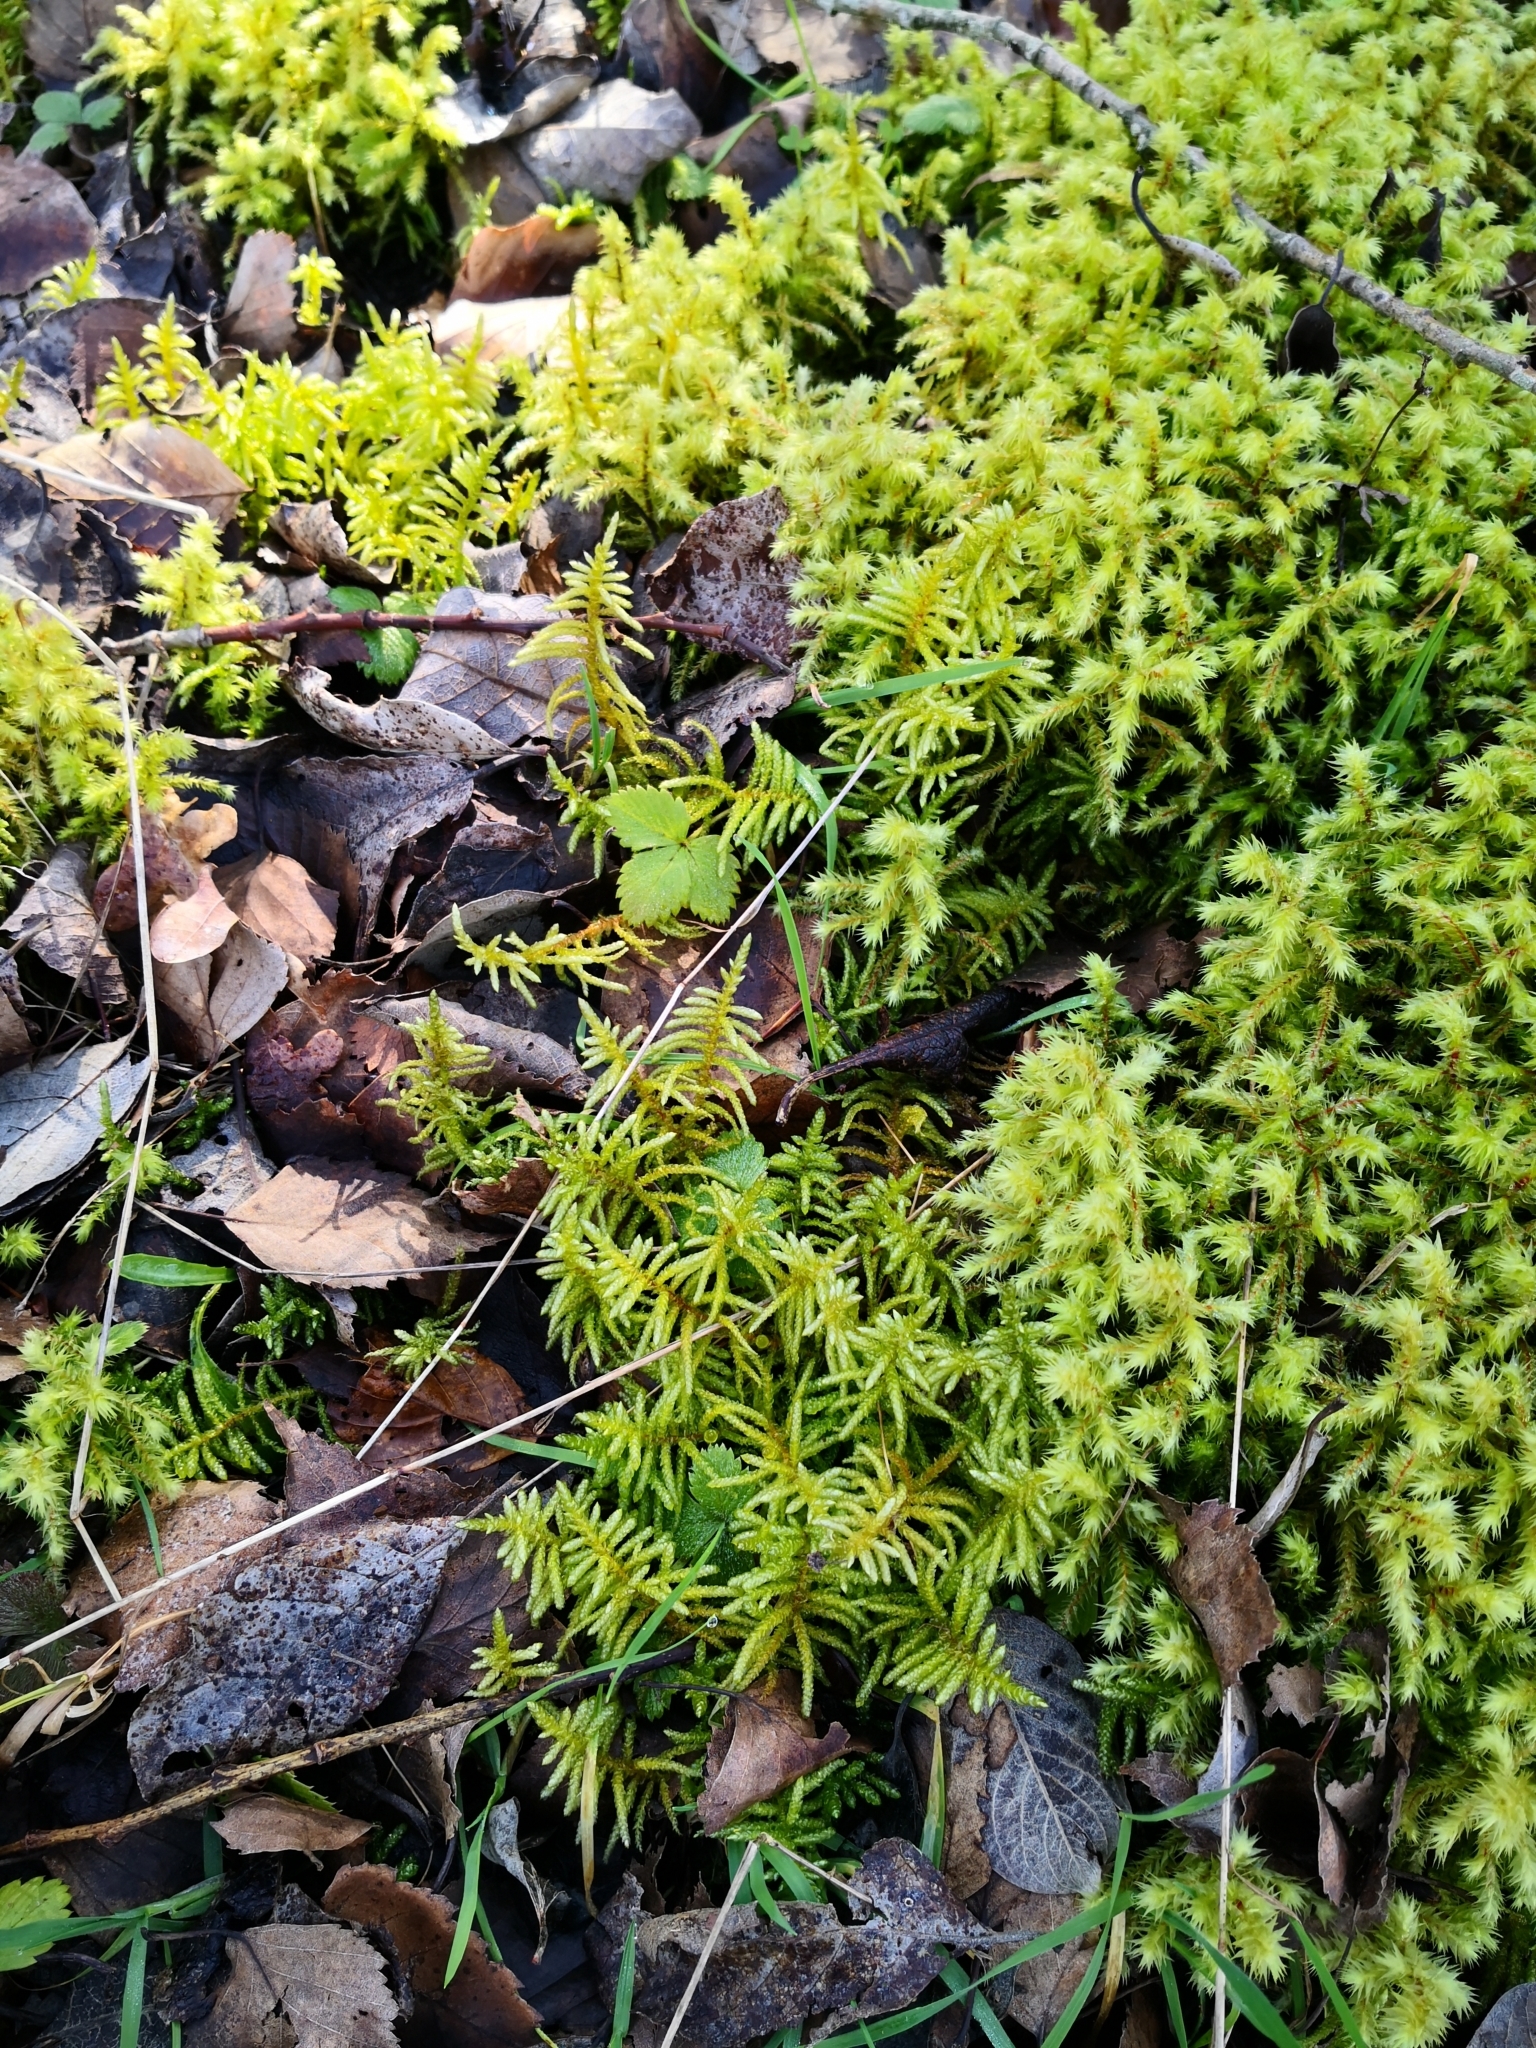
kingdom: Plantae
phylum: Bryophyta
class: Bryopsida
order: Hypnales
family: Brachytheciaceae
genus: Pseudoscleropodium
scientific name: Pseudoscleropodium purum
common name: Neat feather-moss
